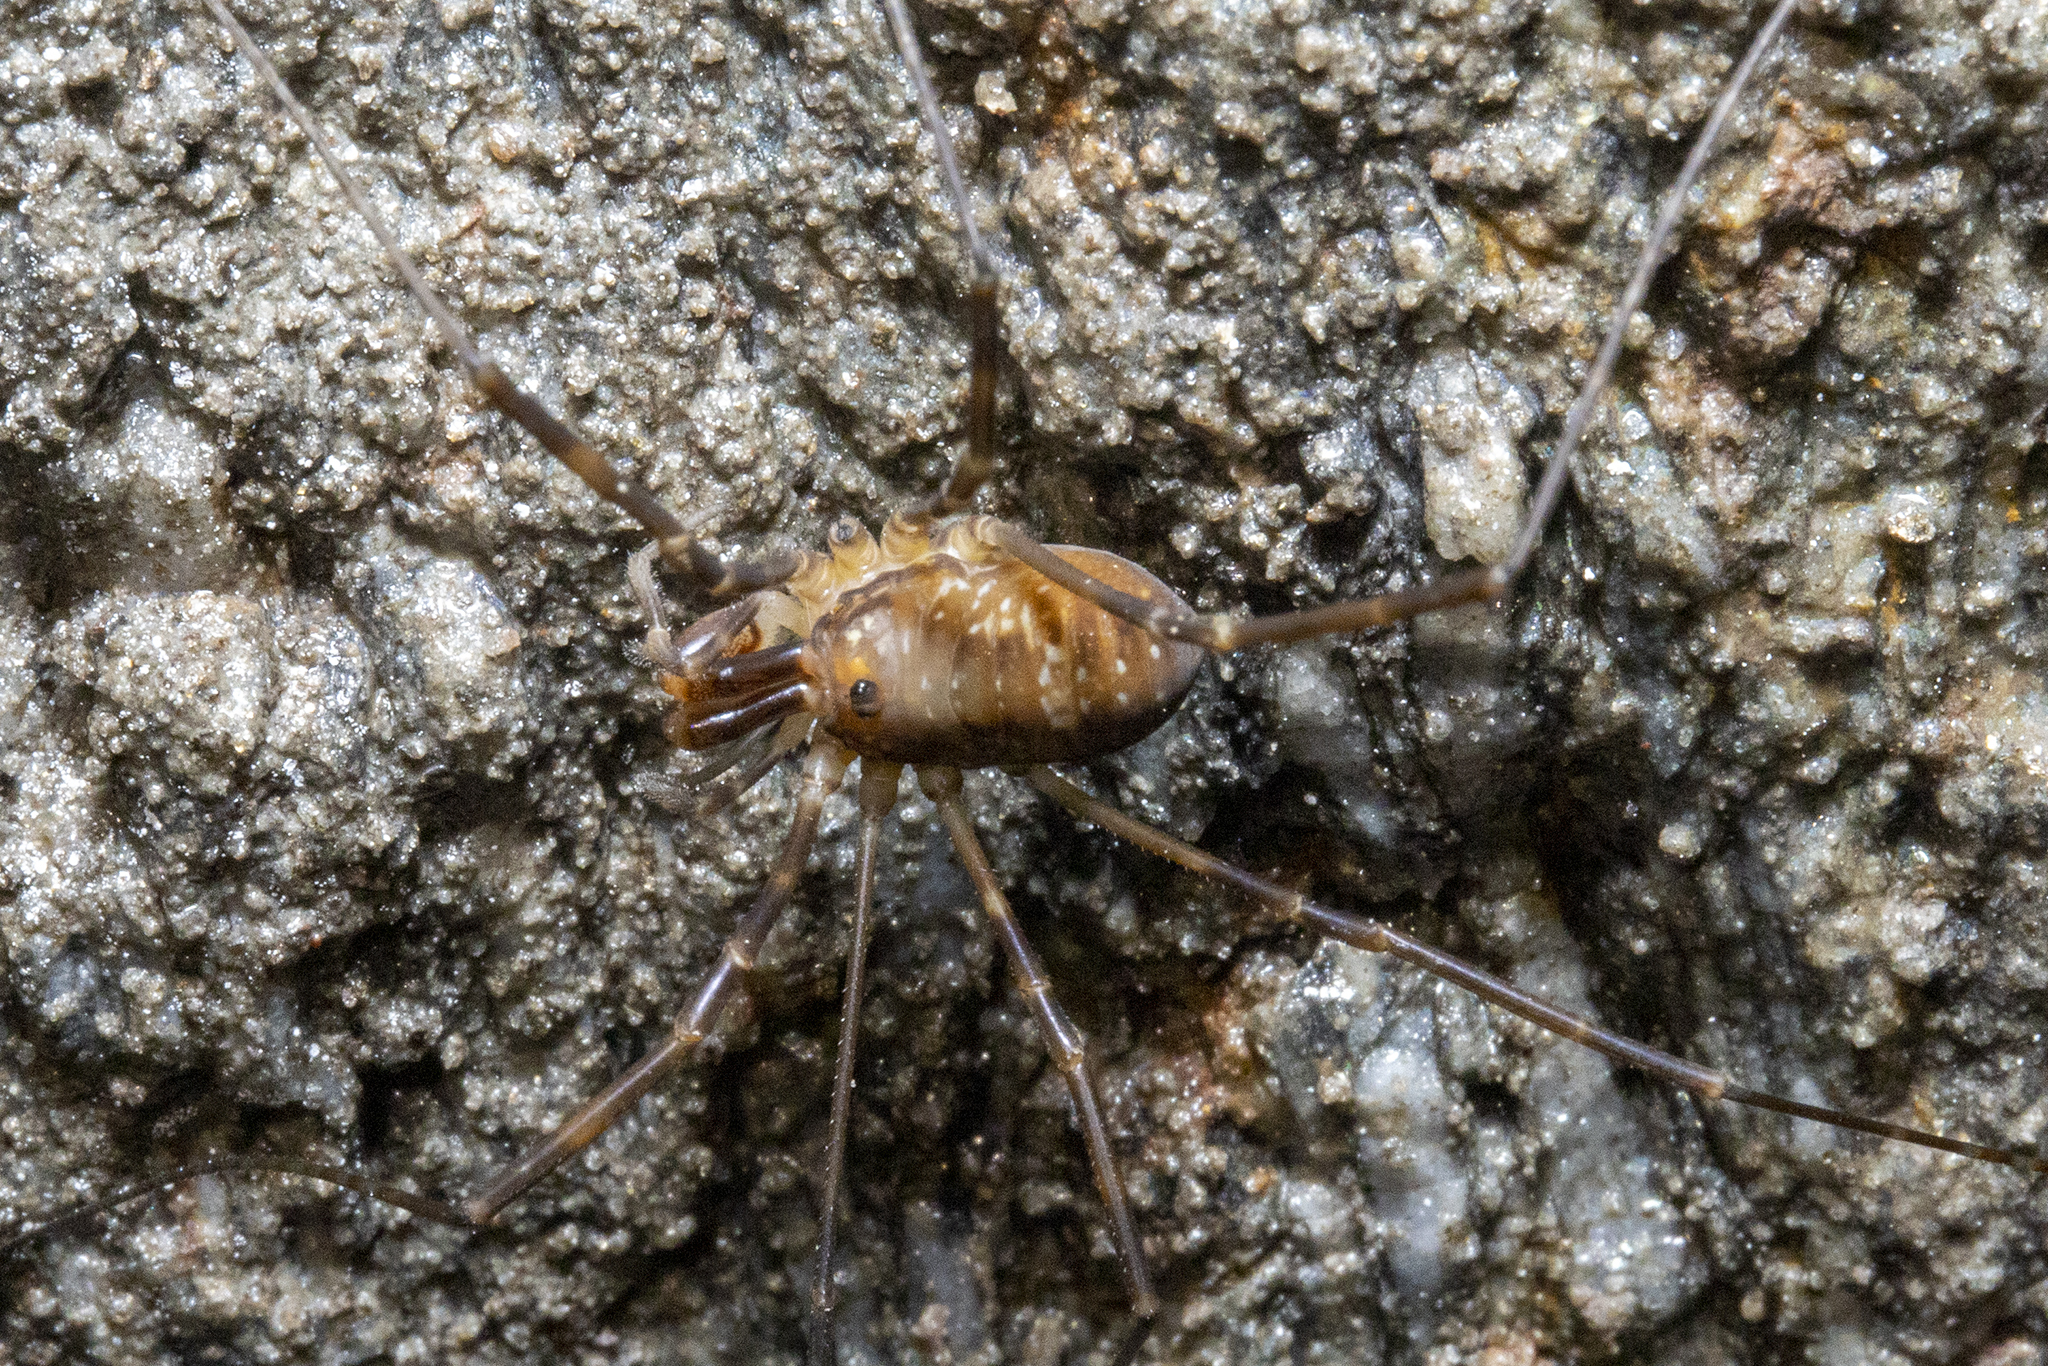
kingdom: Animalia
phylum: Arthropoda
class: Arachnida
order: Opiliones
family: Neopilionidae
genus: Forsteropsalis
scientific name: Forsteropsalis fabulosa
